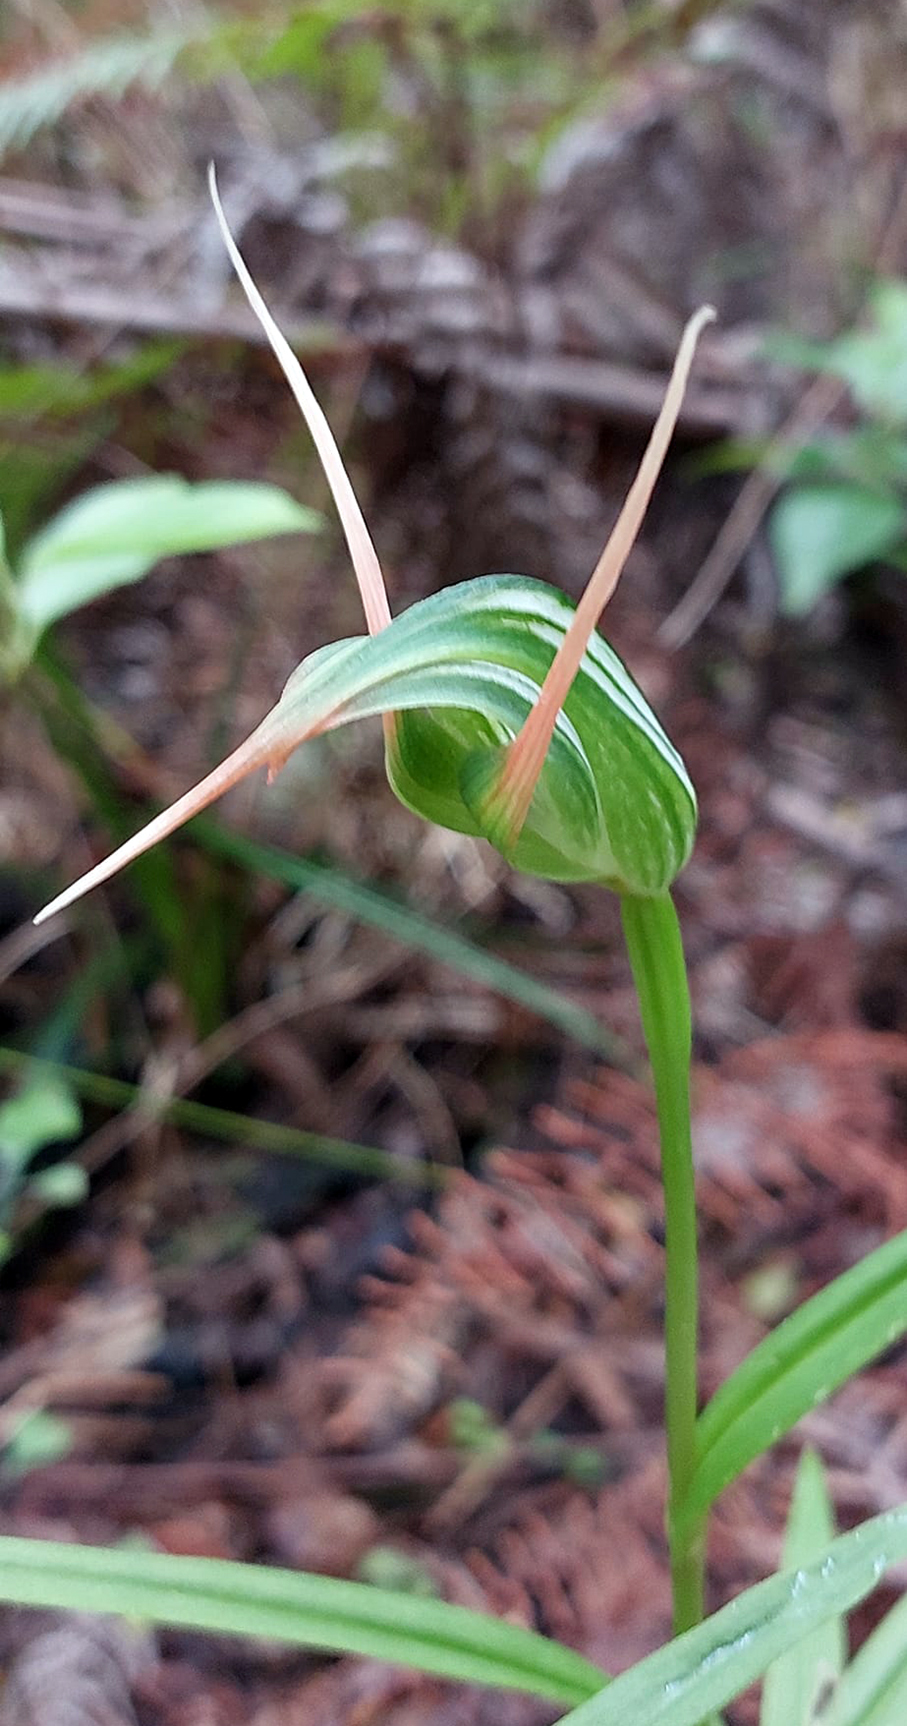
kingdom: Plantae
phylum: Tracheophyta
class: Liliopsida
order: Asparagales
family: Orchidaceae
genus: Pterostylis
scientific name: Pterostylis banksii
